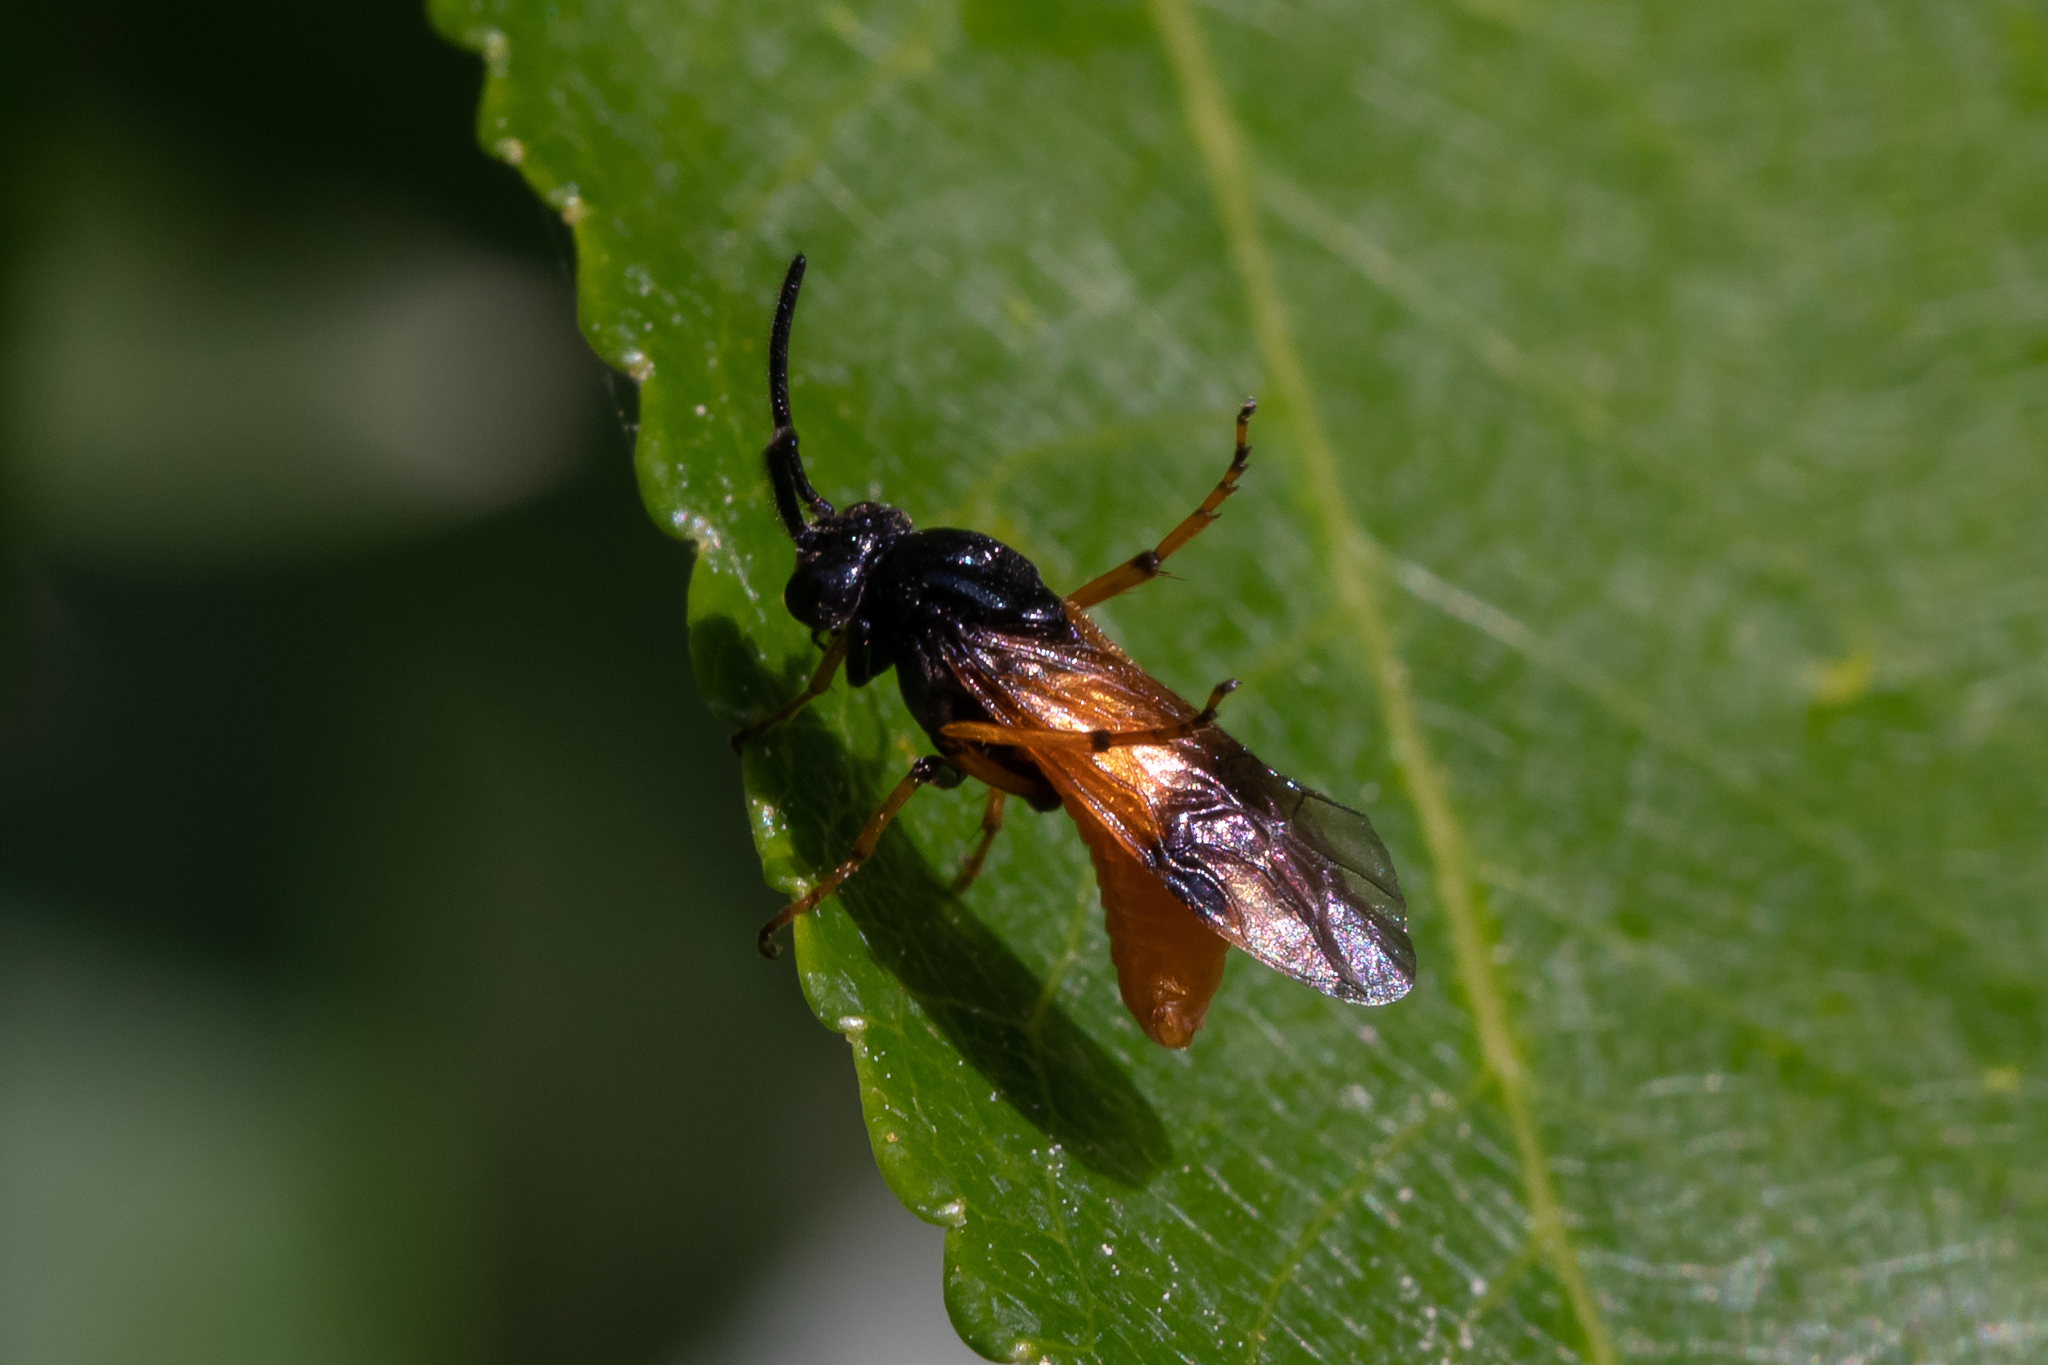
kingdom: Animalia
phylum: Arthropoda
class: Insecta
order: Hymenoptera
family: Argidae
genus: Arge
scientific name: Arge cyanocrocea
